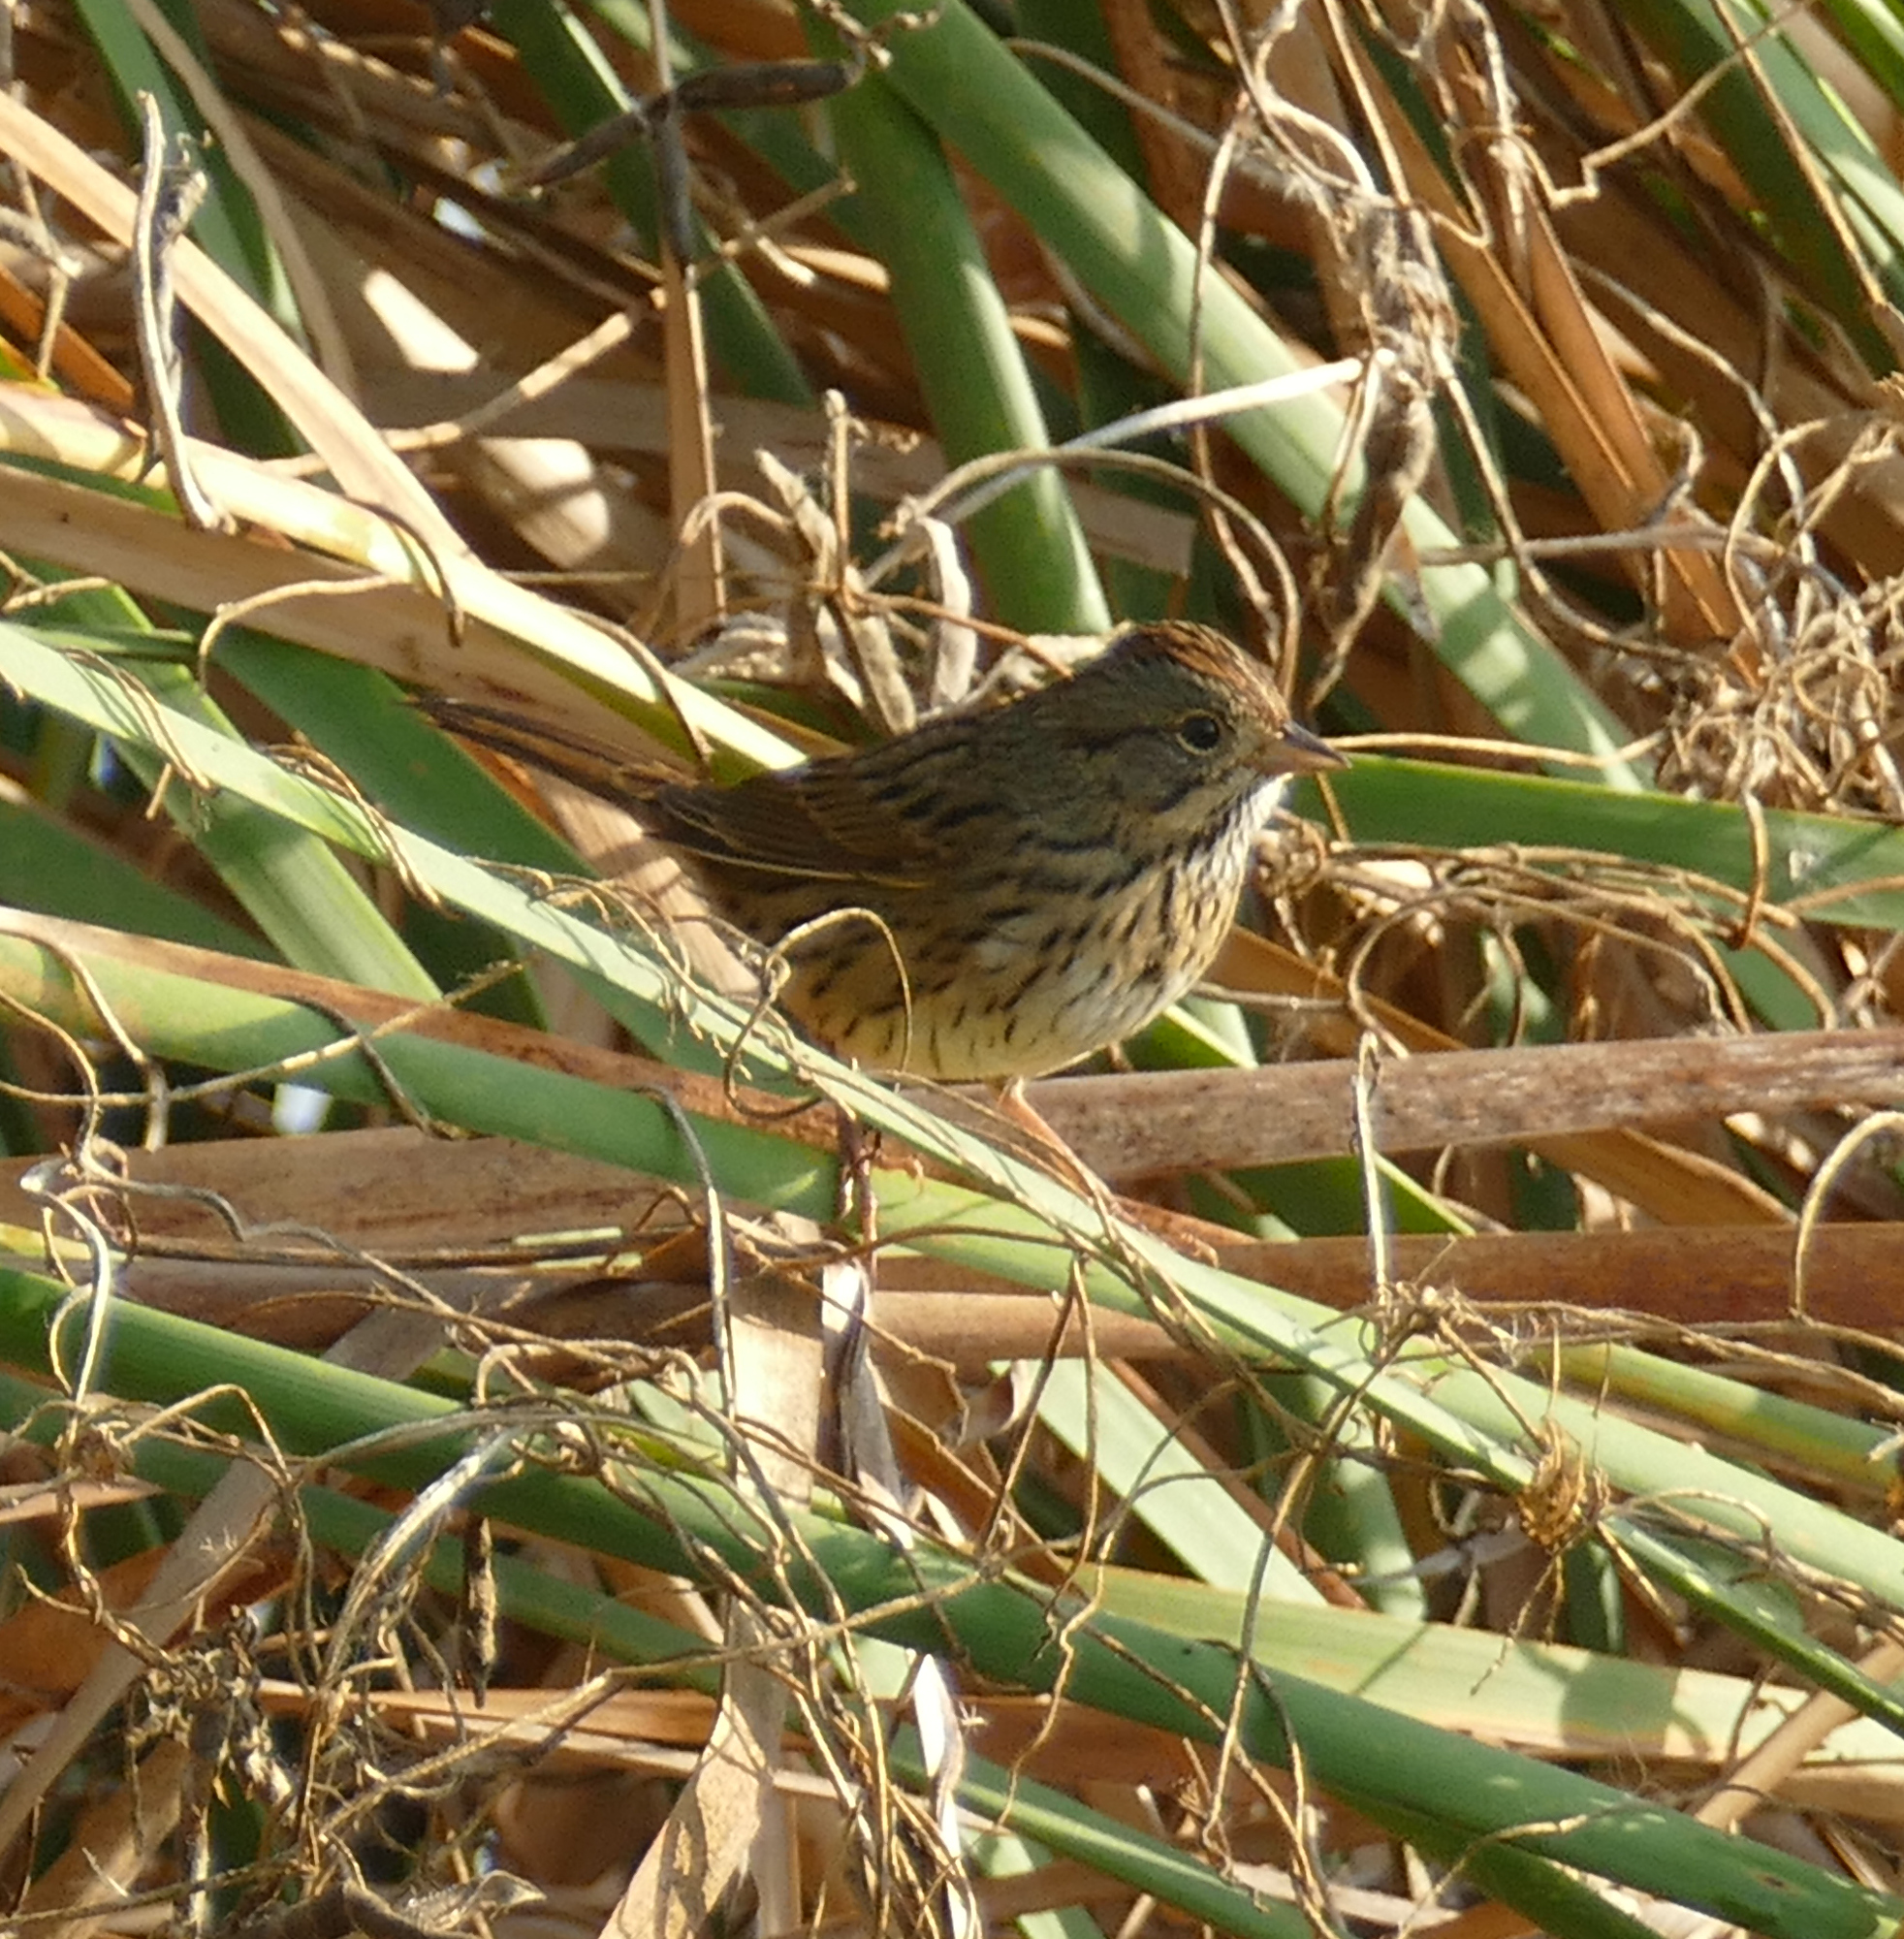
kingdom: Animalia
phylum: Chordata
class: Aves
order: Passeriformes
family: Passerellidae
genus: Melospiza
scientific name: Melospiza lincolnii
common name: Lincoln's sparrow
